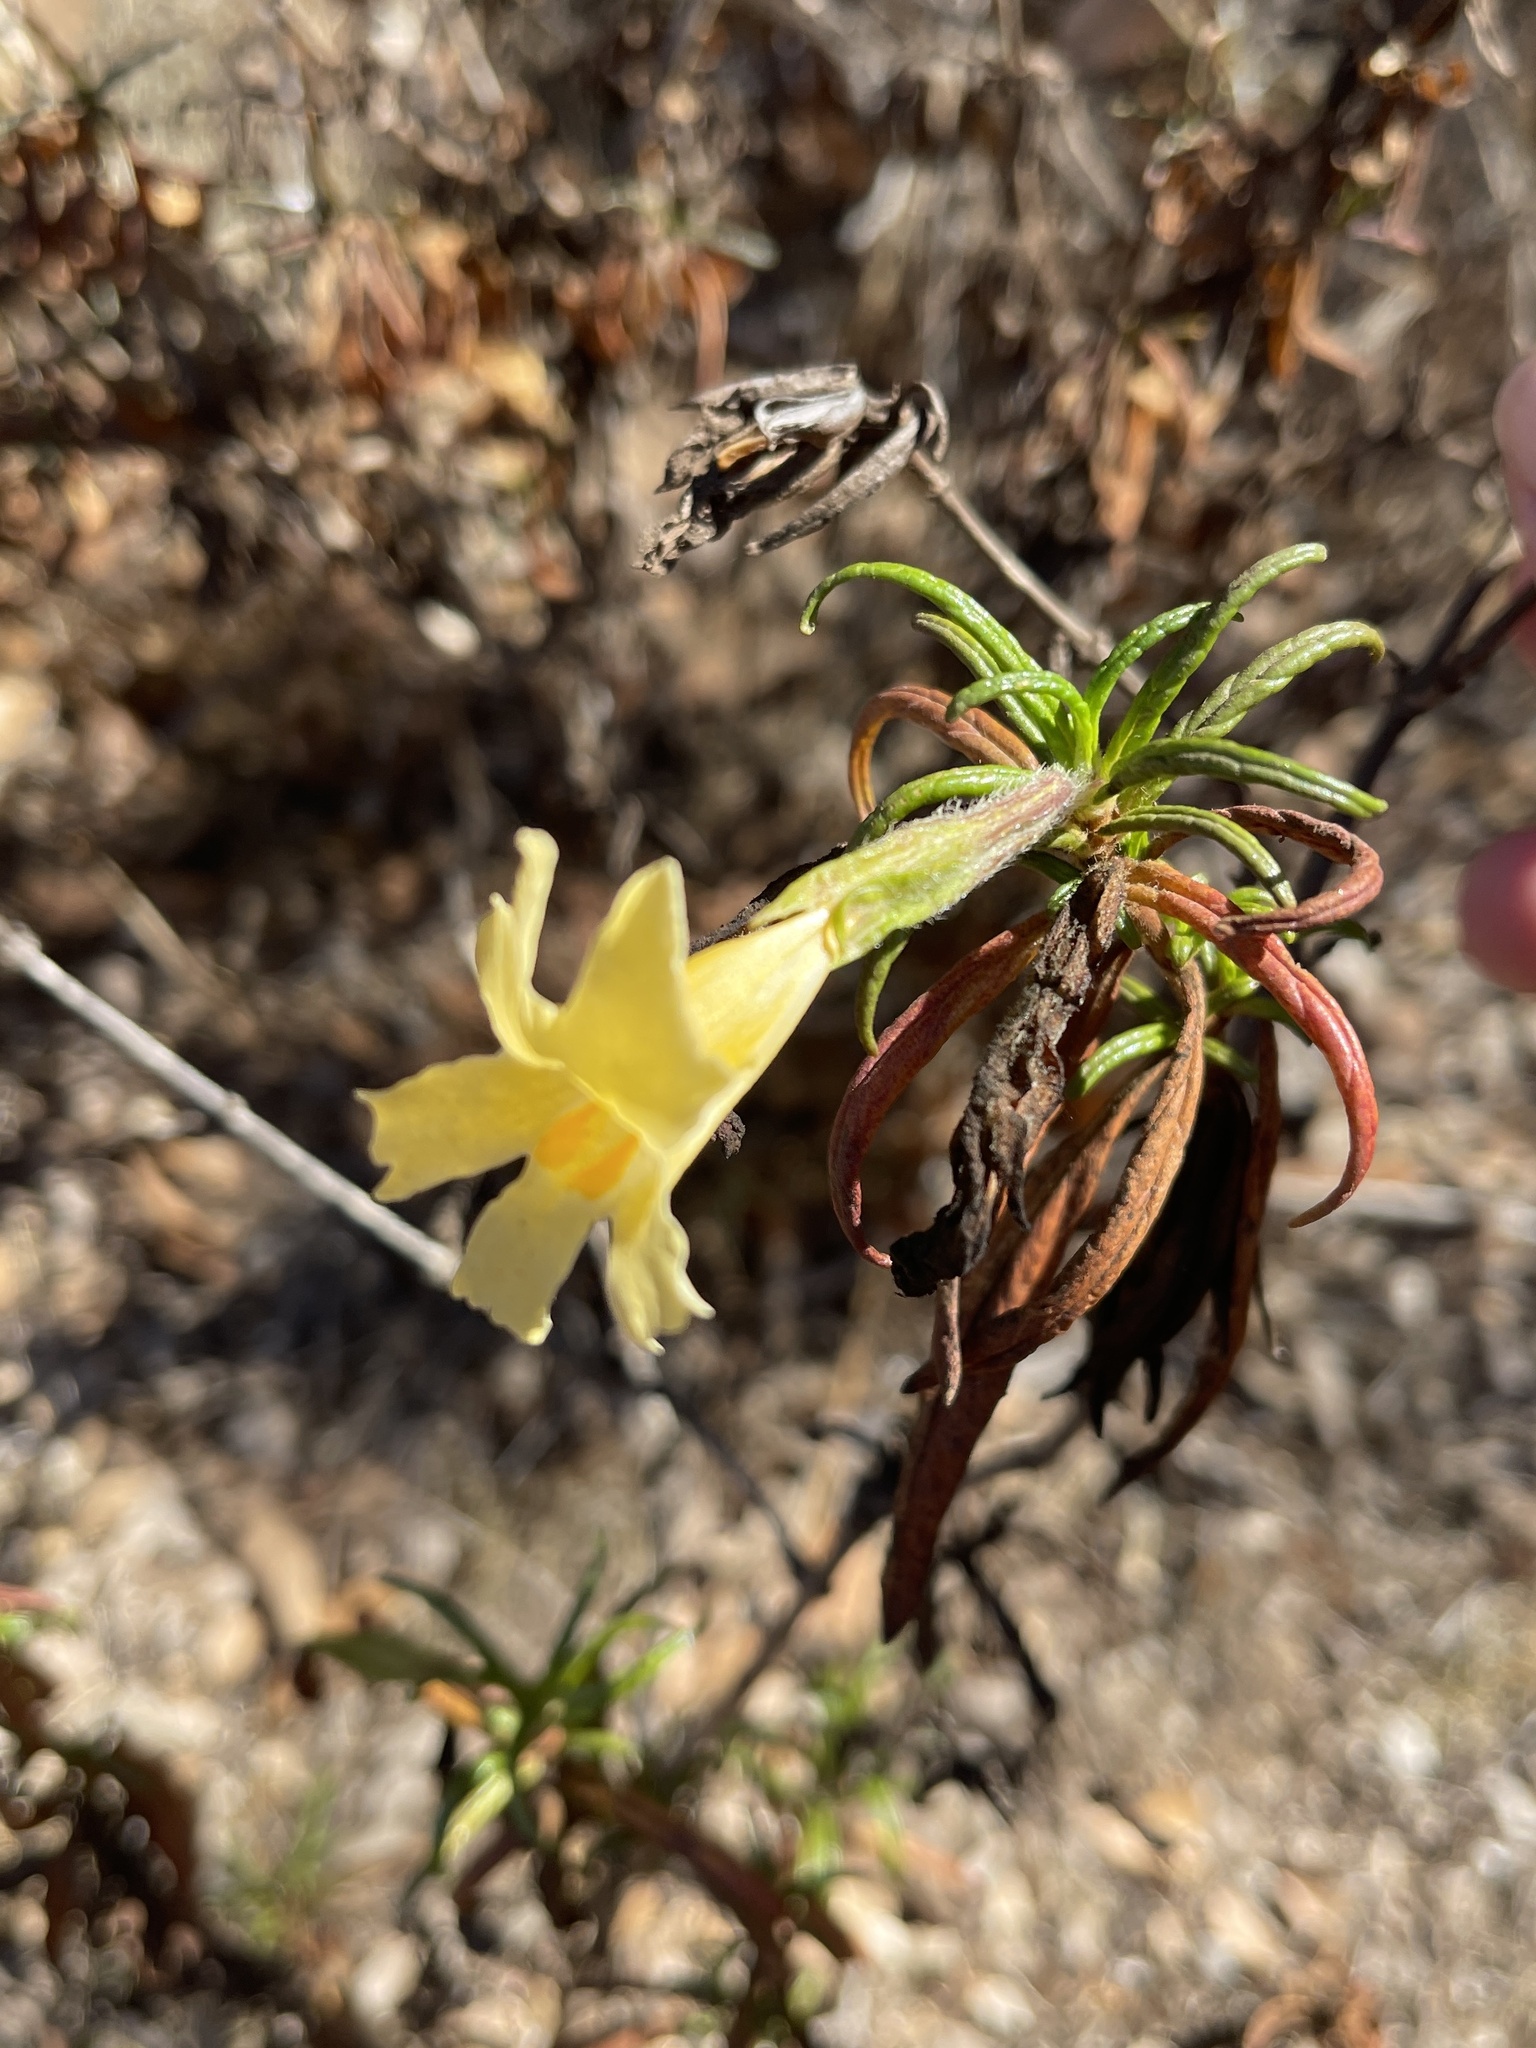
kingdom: Plantae
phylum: Tracheophyta
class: Magnoliopsida
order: Lamiales
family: Phrymaceae
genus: Diplacus
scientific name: Diplacus longiflorus
